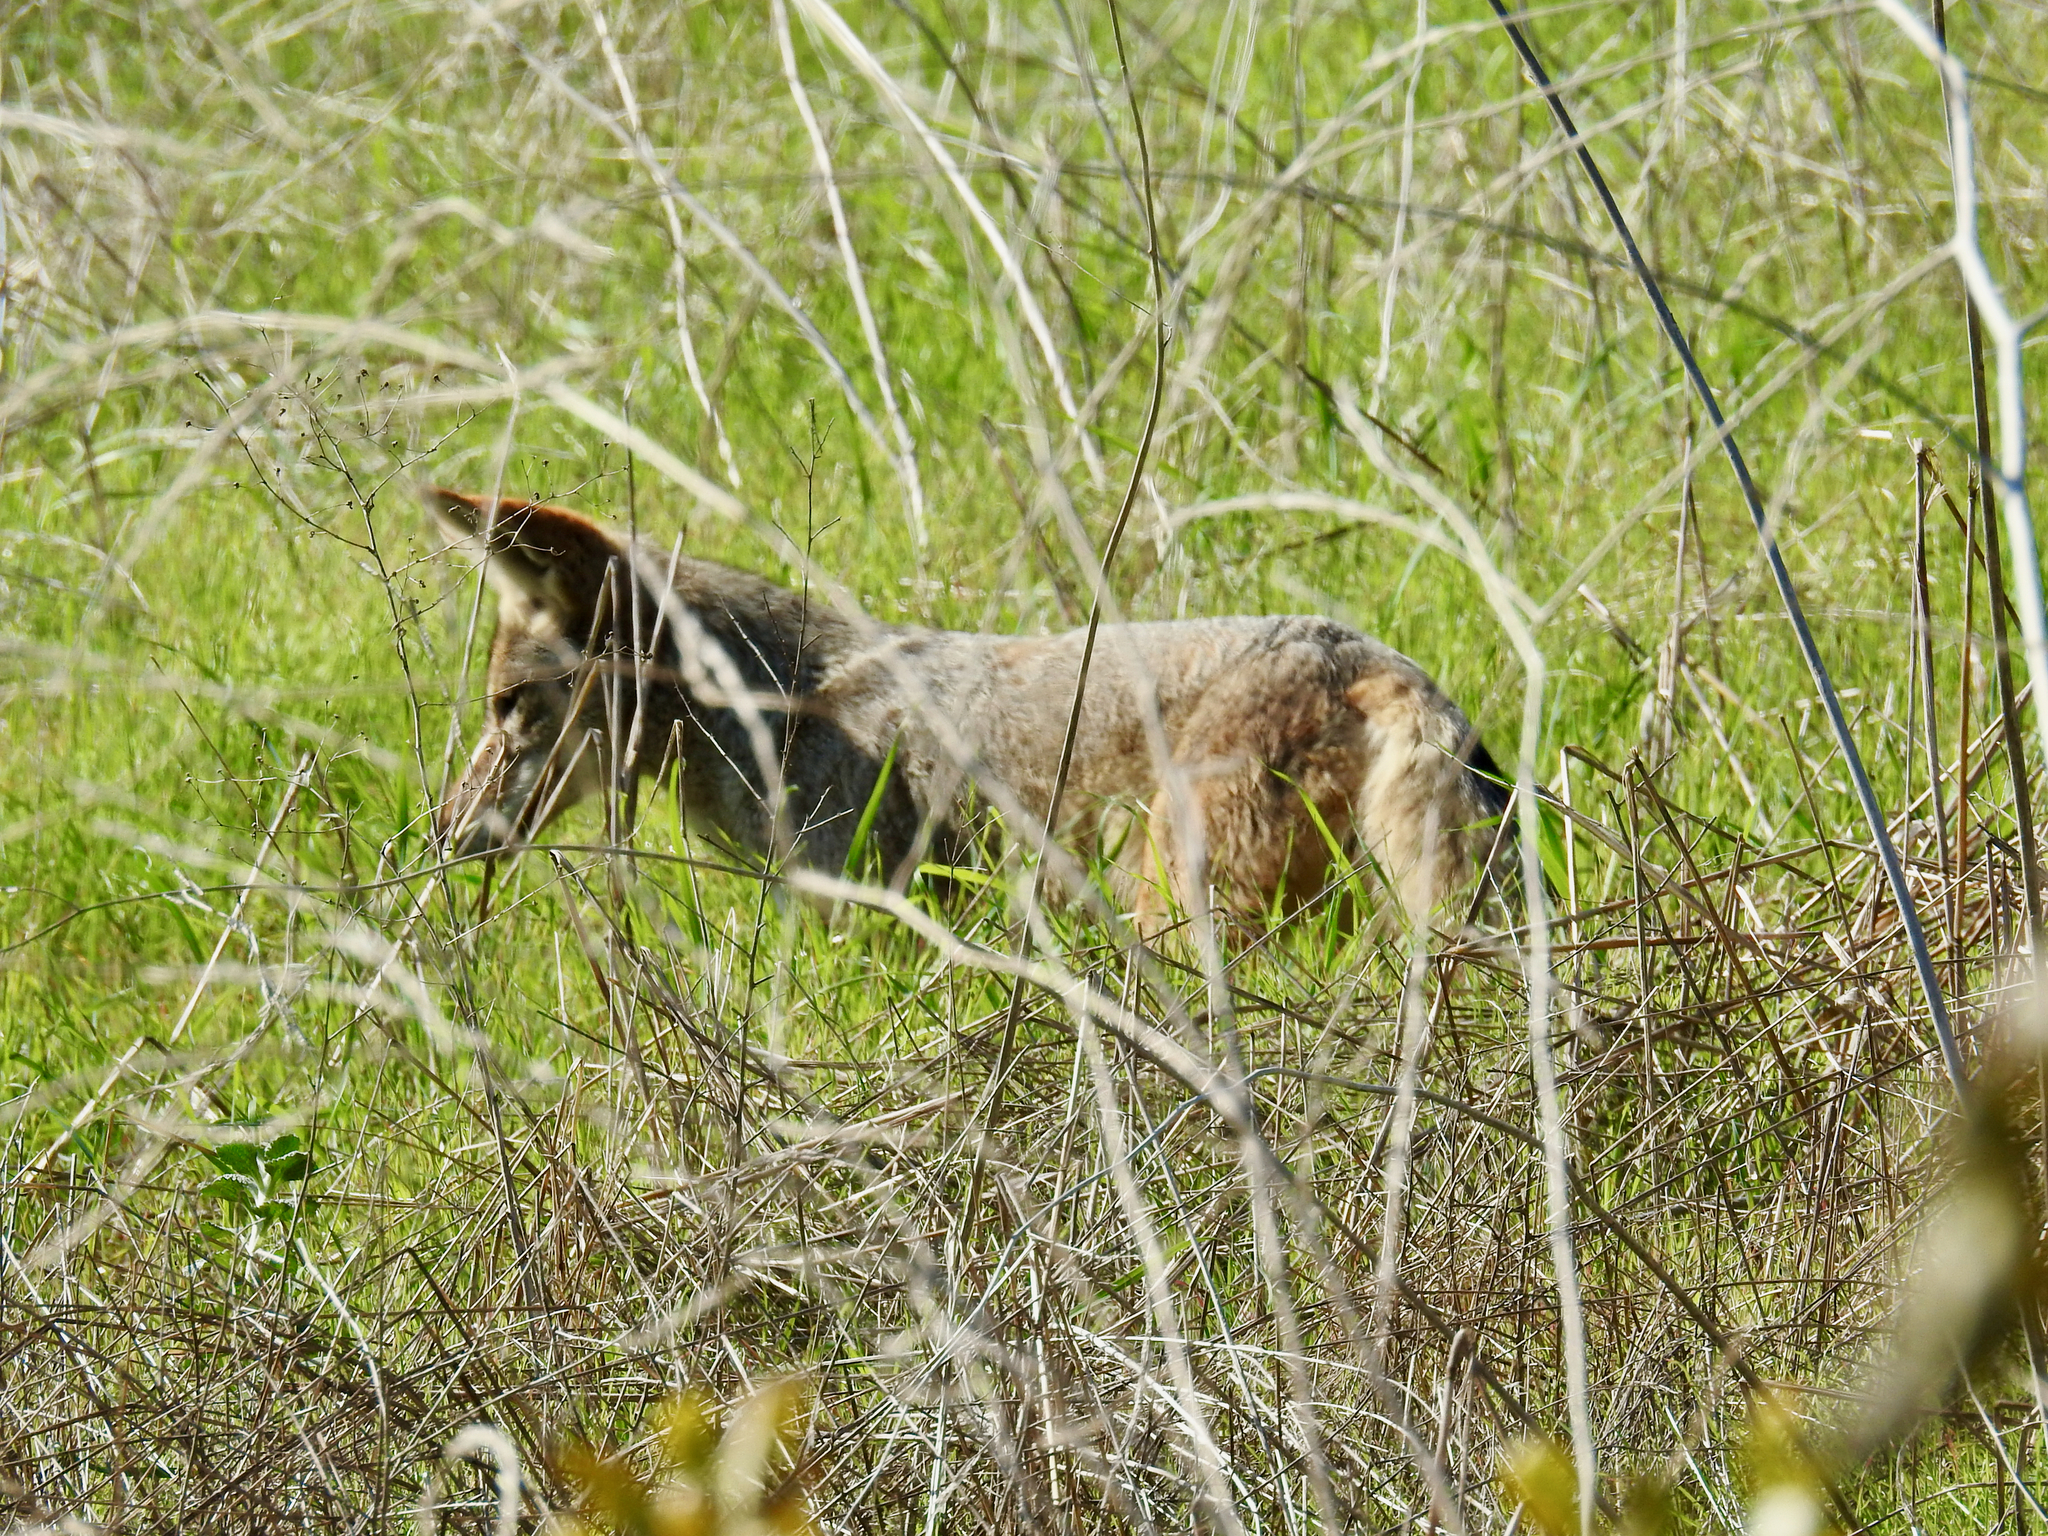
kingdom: Animalia
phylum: Chordata
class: Mammalia
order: Carnivora
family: Canidae
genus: Canis
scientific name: Canis latrans
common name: Coyote
